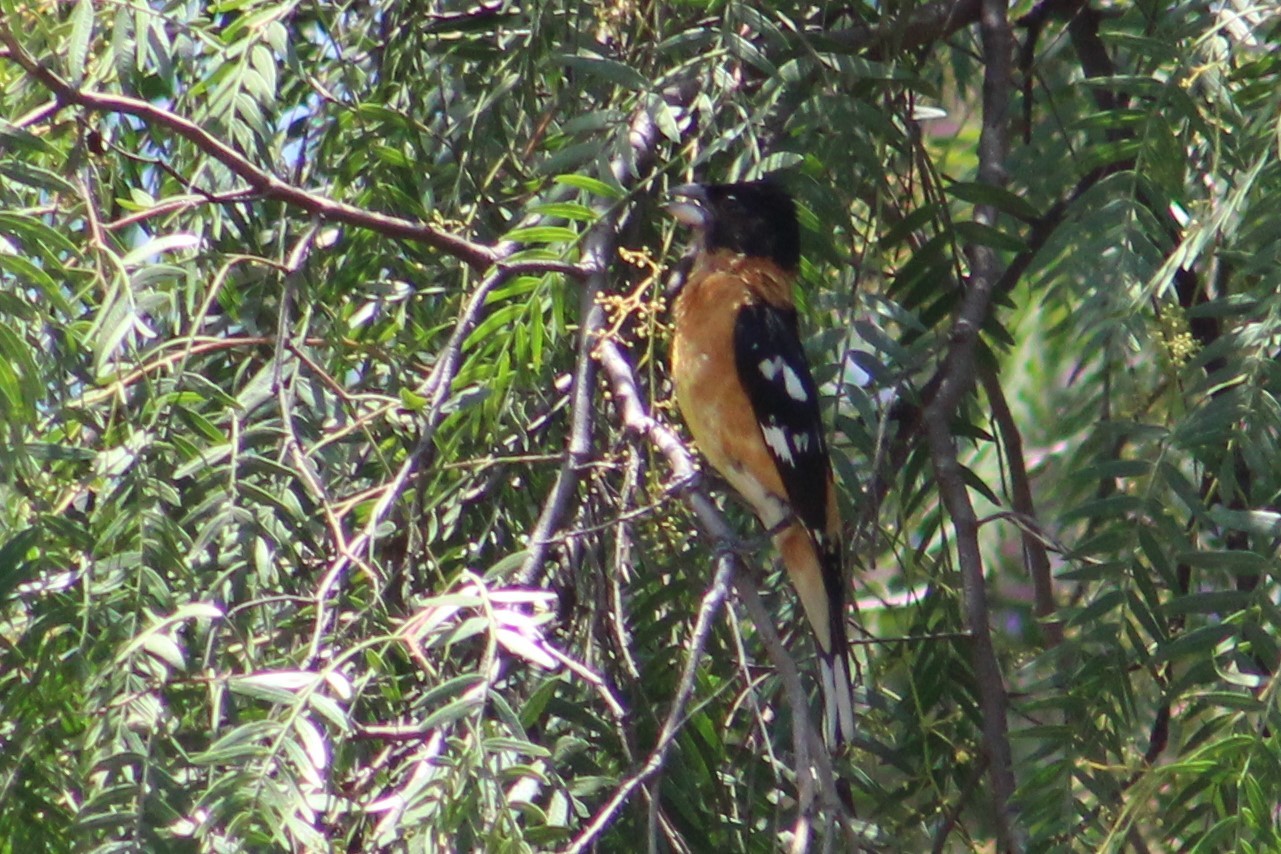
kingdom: Animalia
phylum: Chordata
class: Aves
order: Passeriformes
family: Cardinalidae
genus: Pheucticus
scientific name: Pheucticus melanocephalus
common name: Black-headed grosbeak
